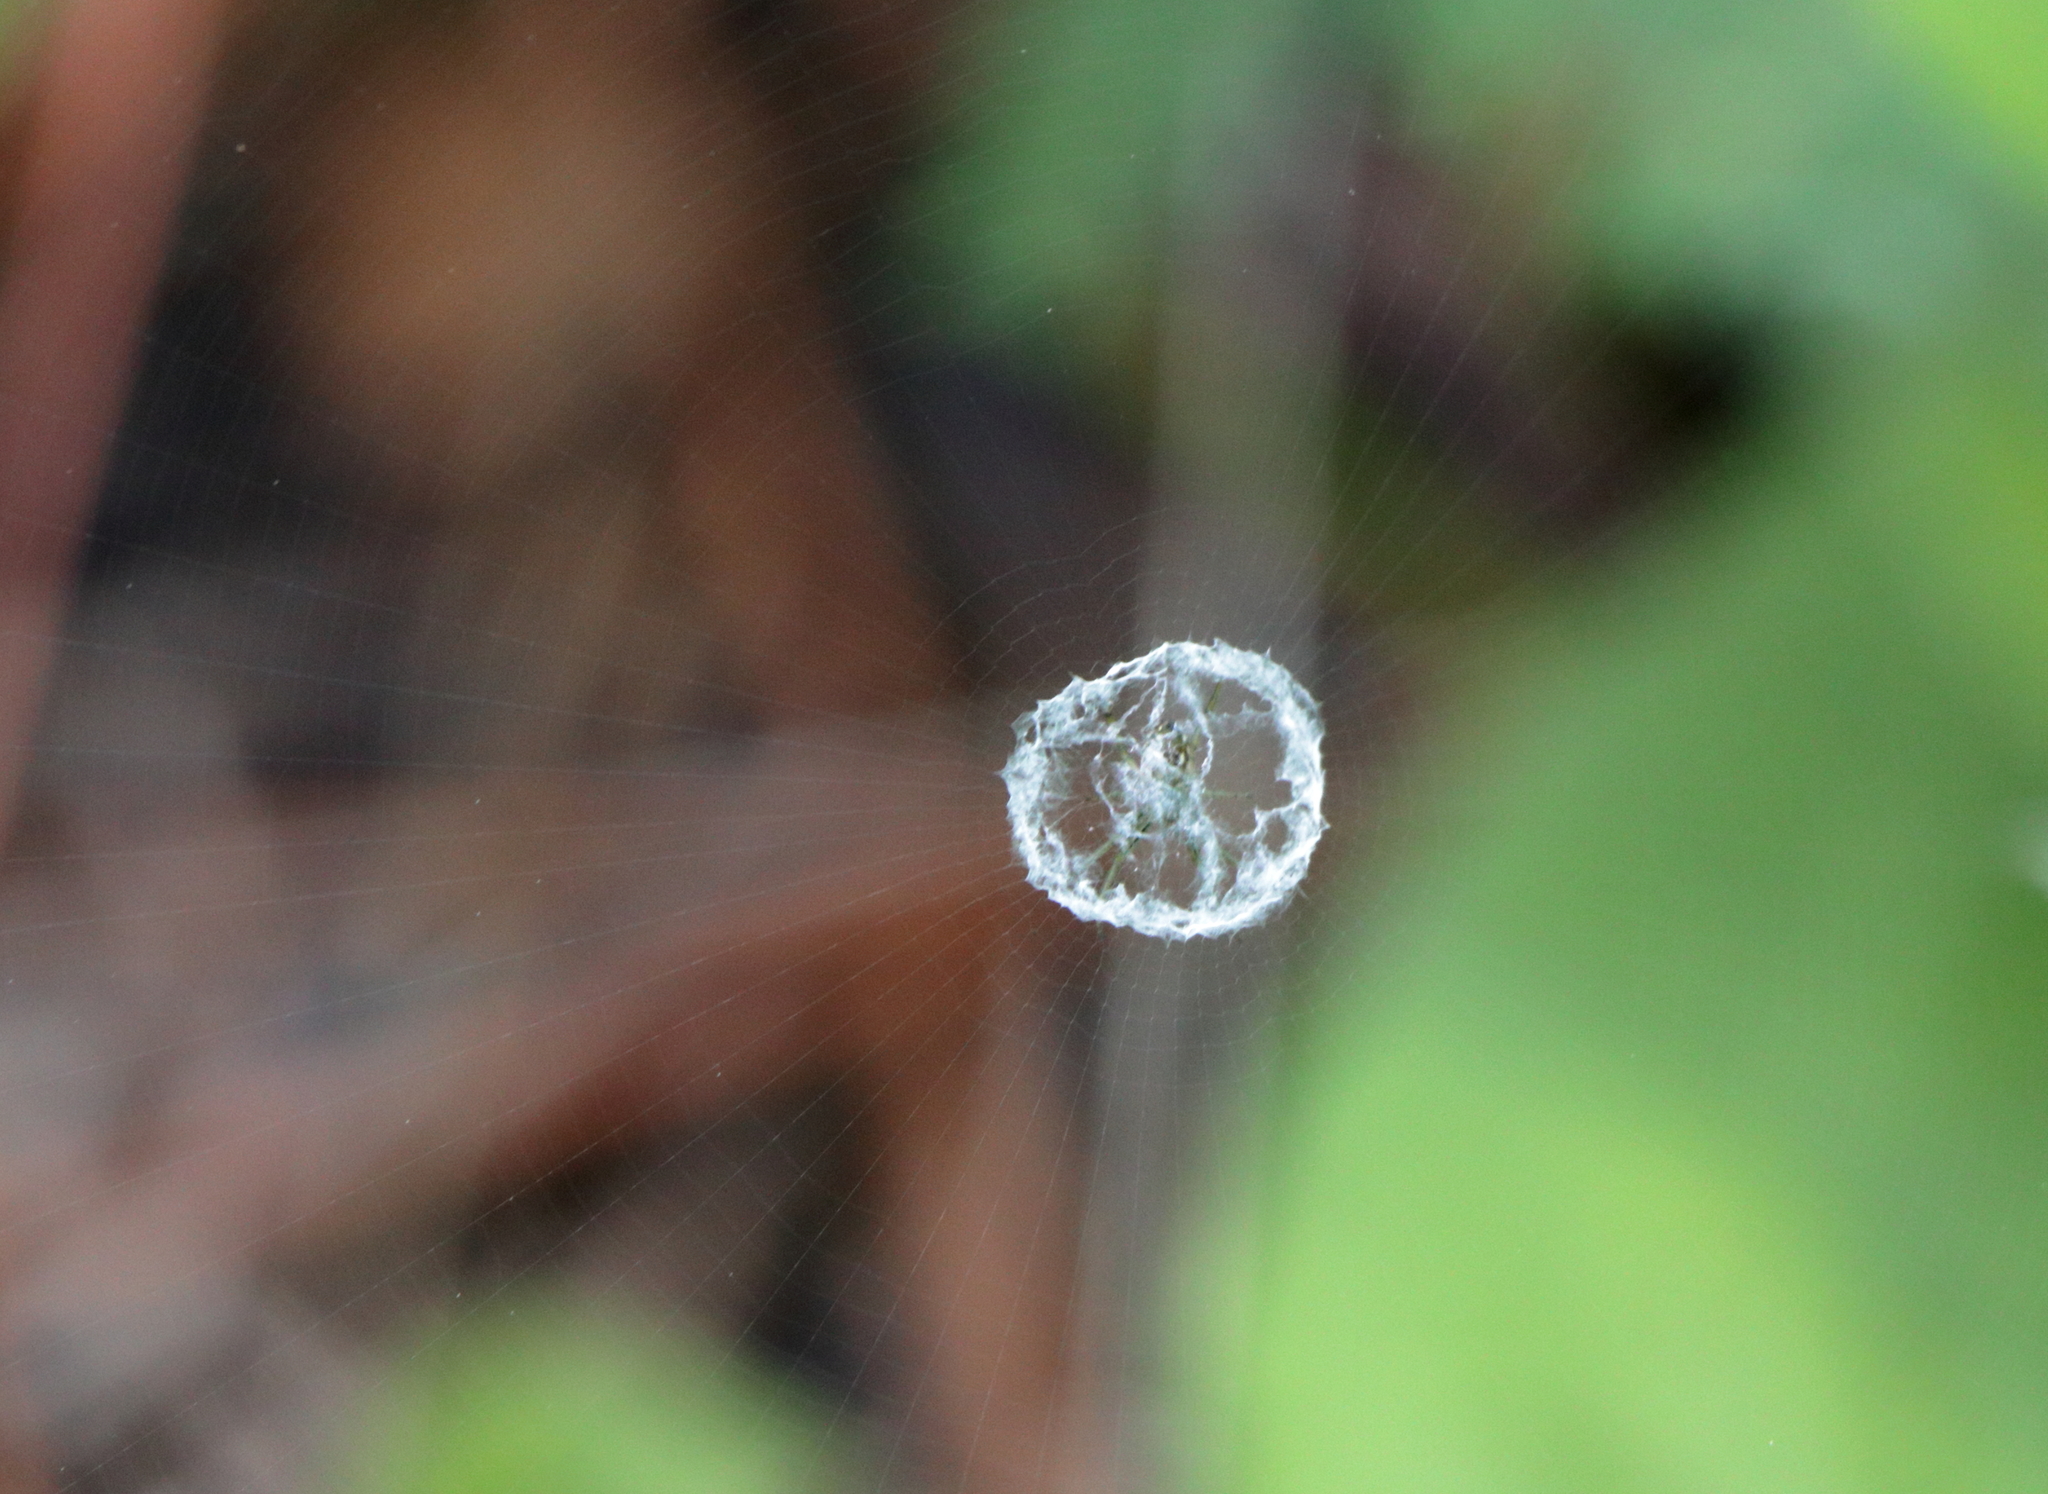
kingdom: Animalia
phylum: Arthropoda
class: Arachnida
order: Araneae
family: Araneidae
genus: Mangora
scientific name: Mangora gibberosa
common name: Lined orbweaver
